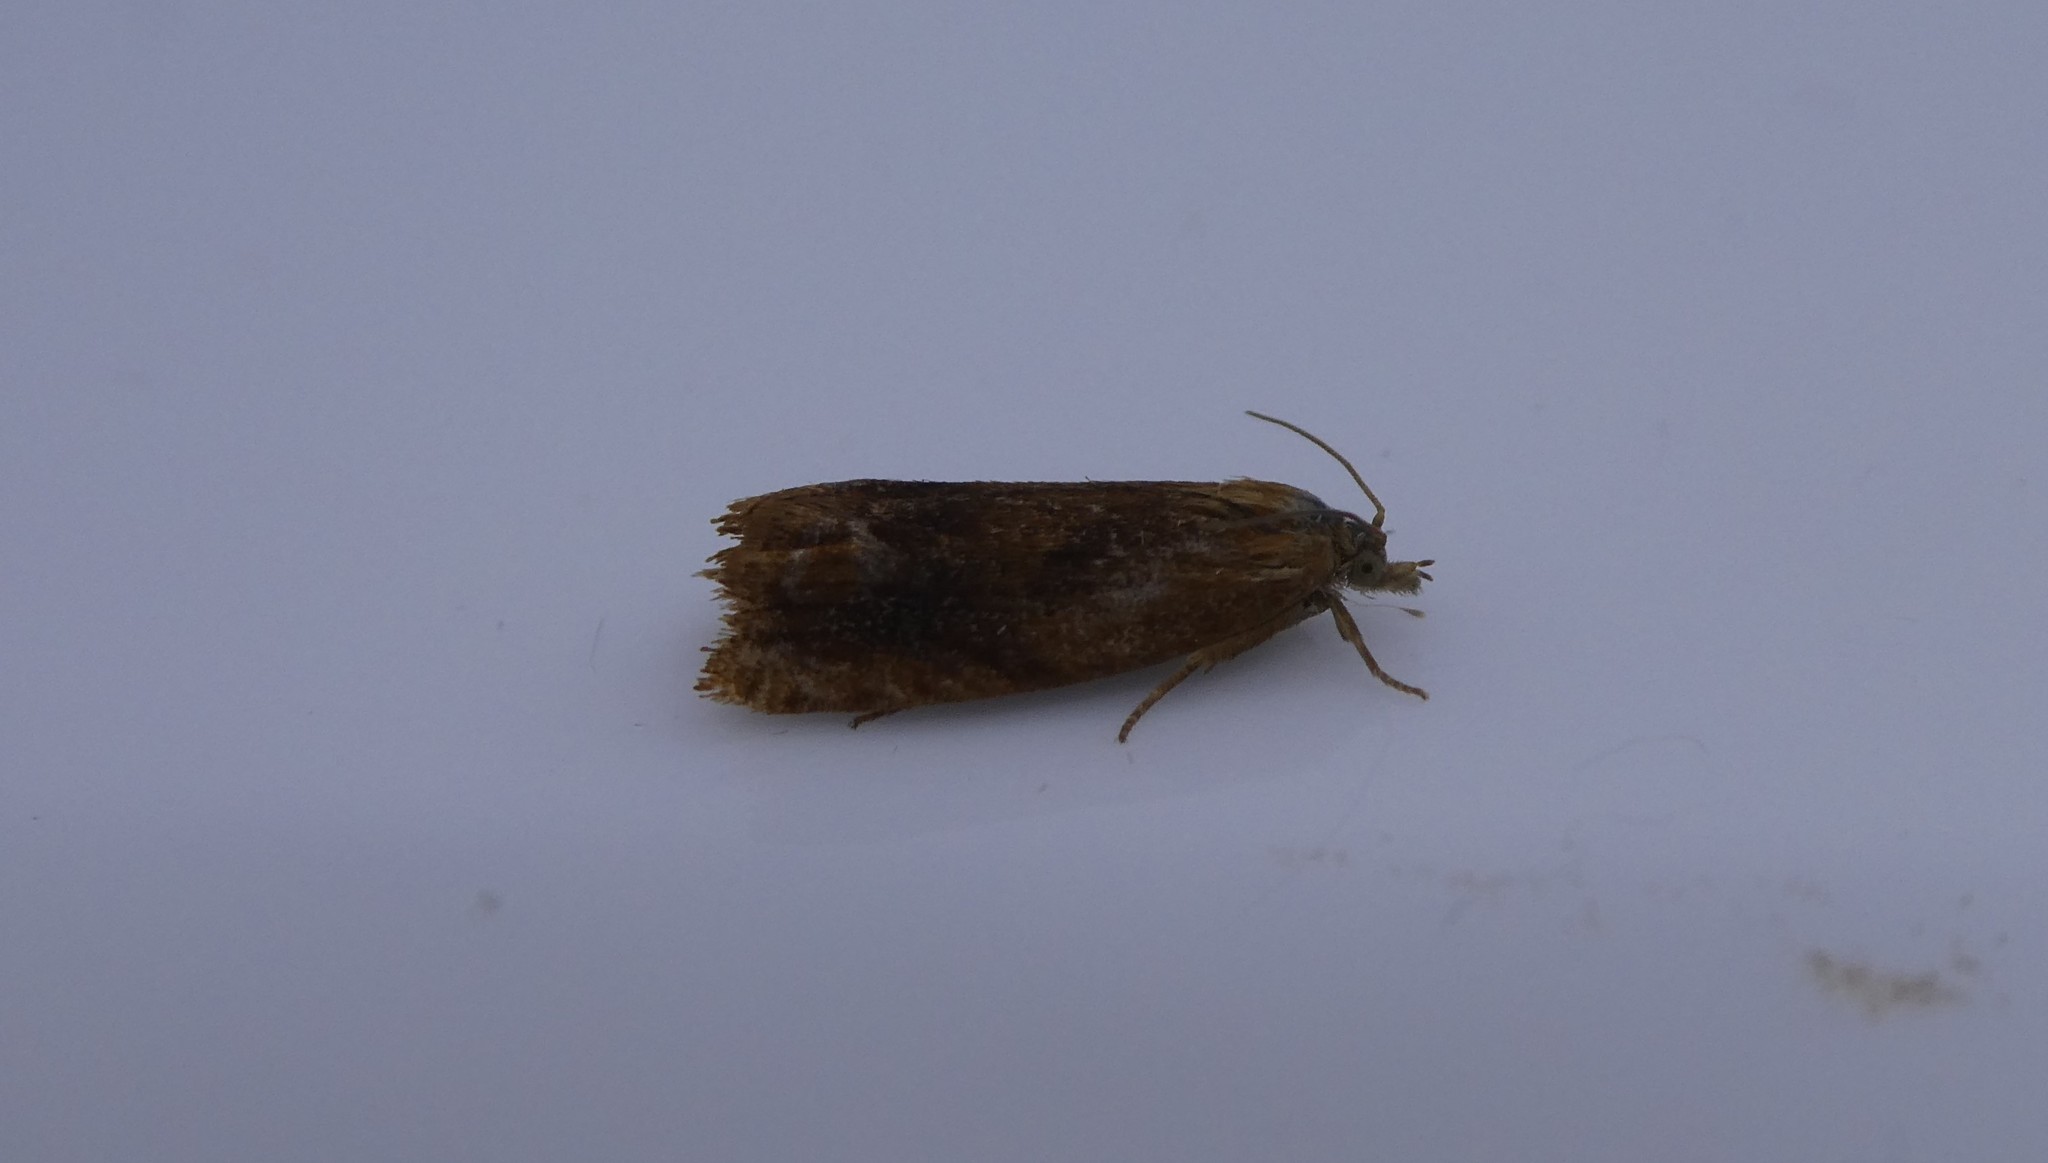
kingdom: Animalia
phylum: Arthropoda
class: Insecta
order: Lepidoptera
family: Tortricidae
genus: Eucosma
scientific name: Eucosma formosana
